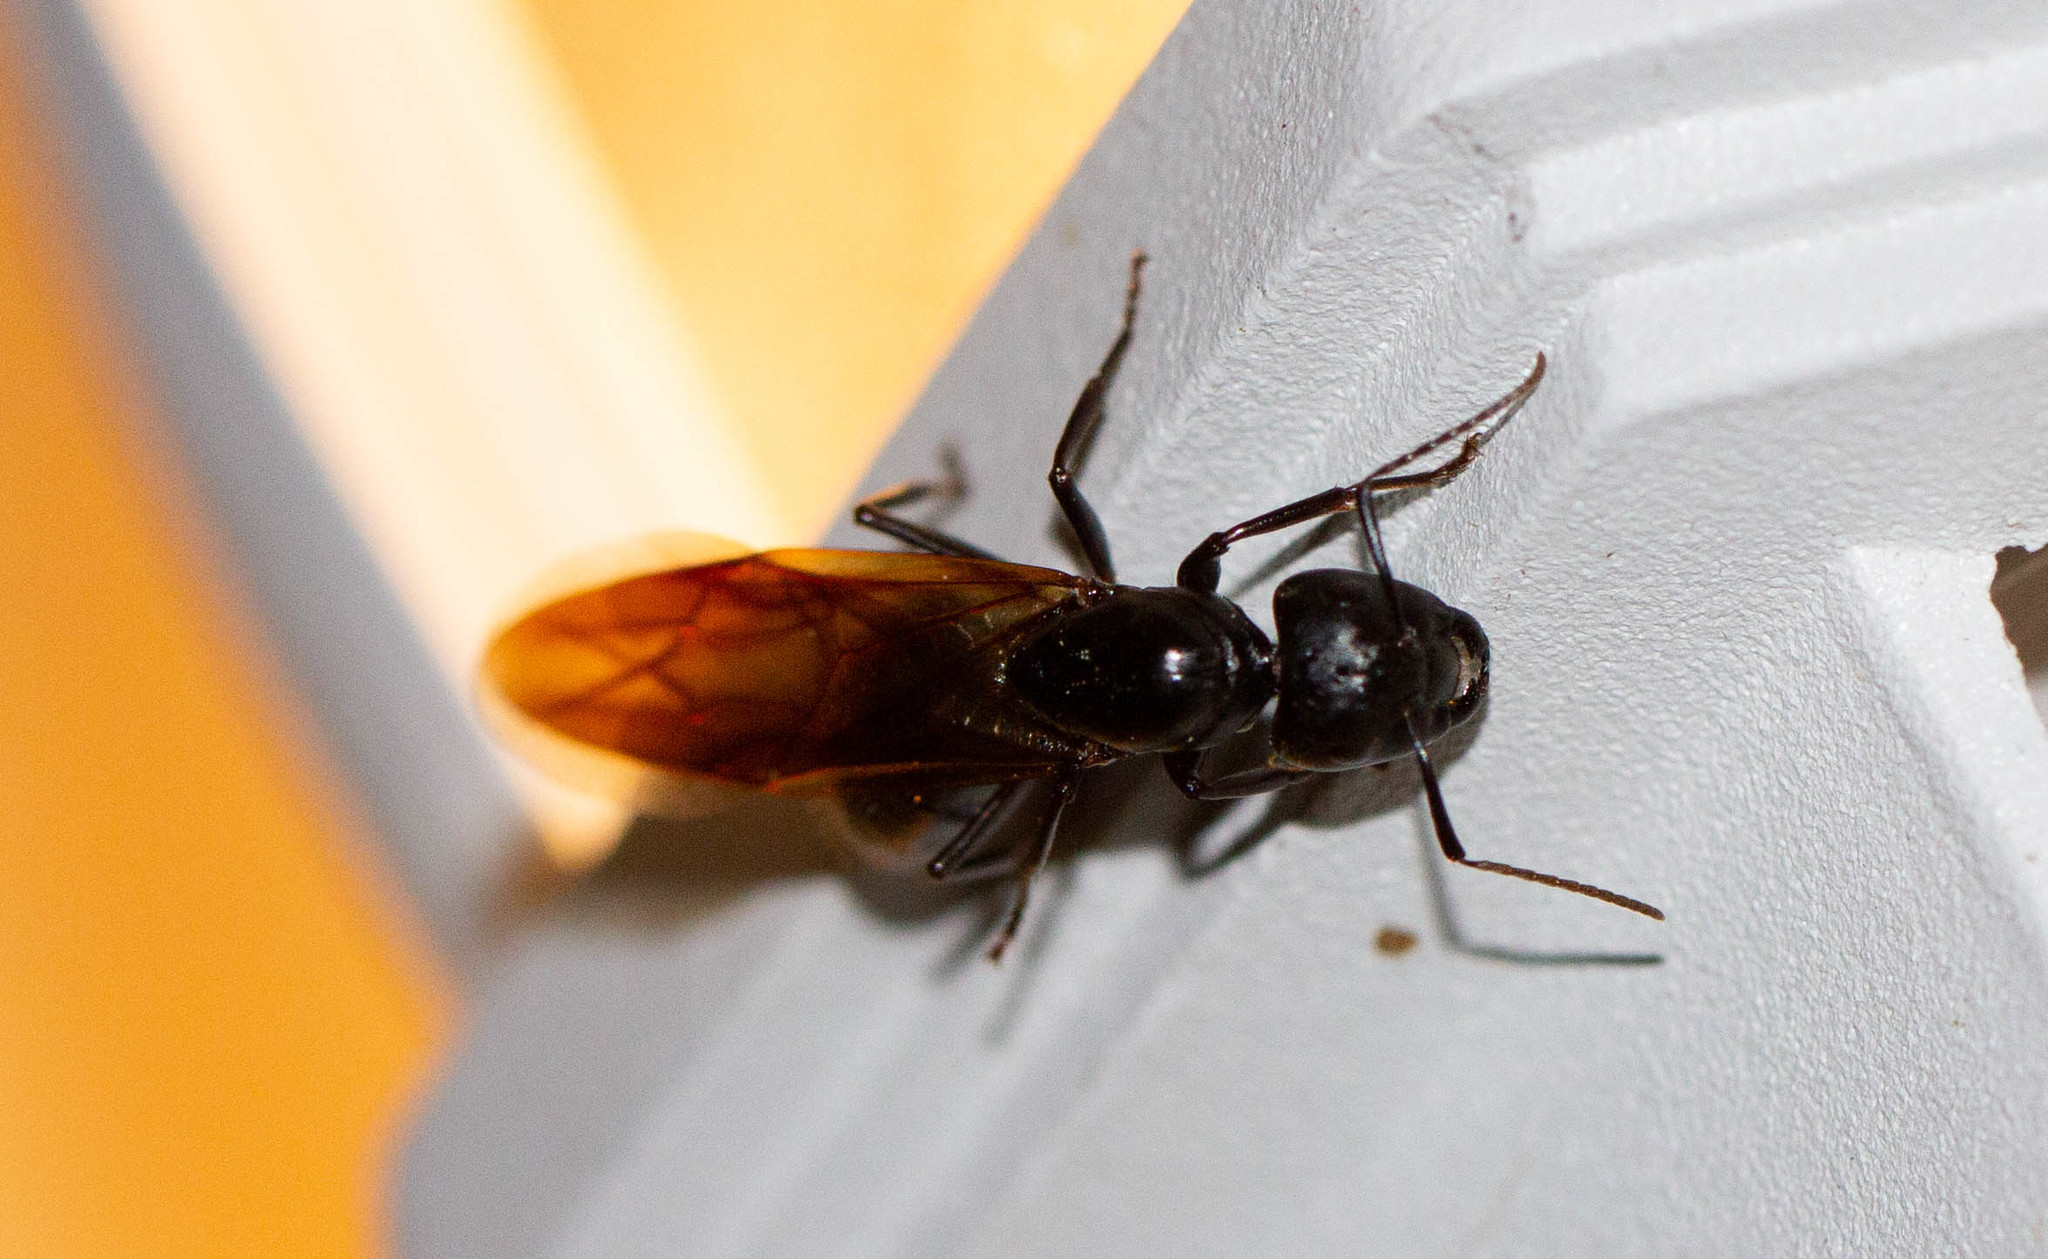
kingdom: Animalia
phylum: Arthropoda
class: Insecta
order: Hymenoptera
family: Formicidae
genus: Camponotus
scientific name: Camponotus pennsylvanicus
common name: Black carpenter ant
